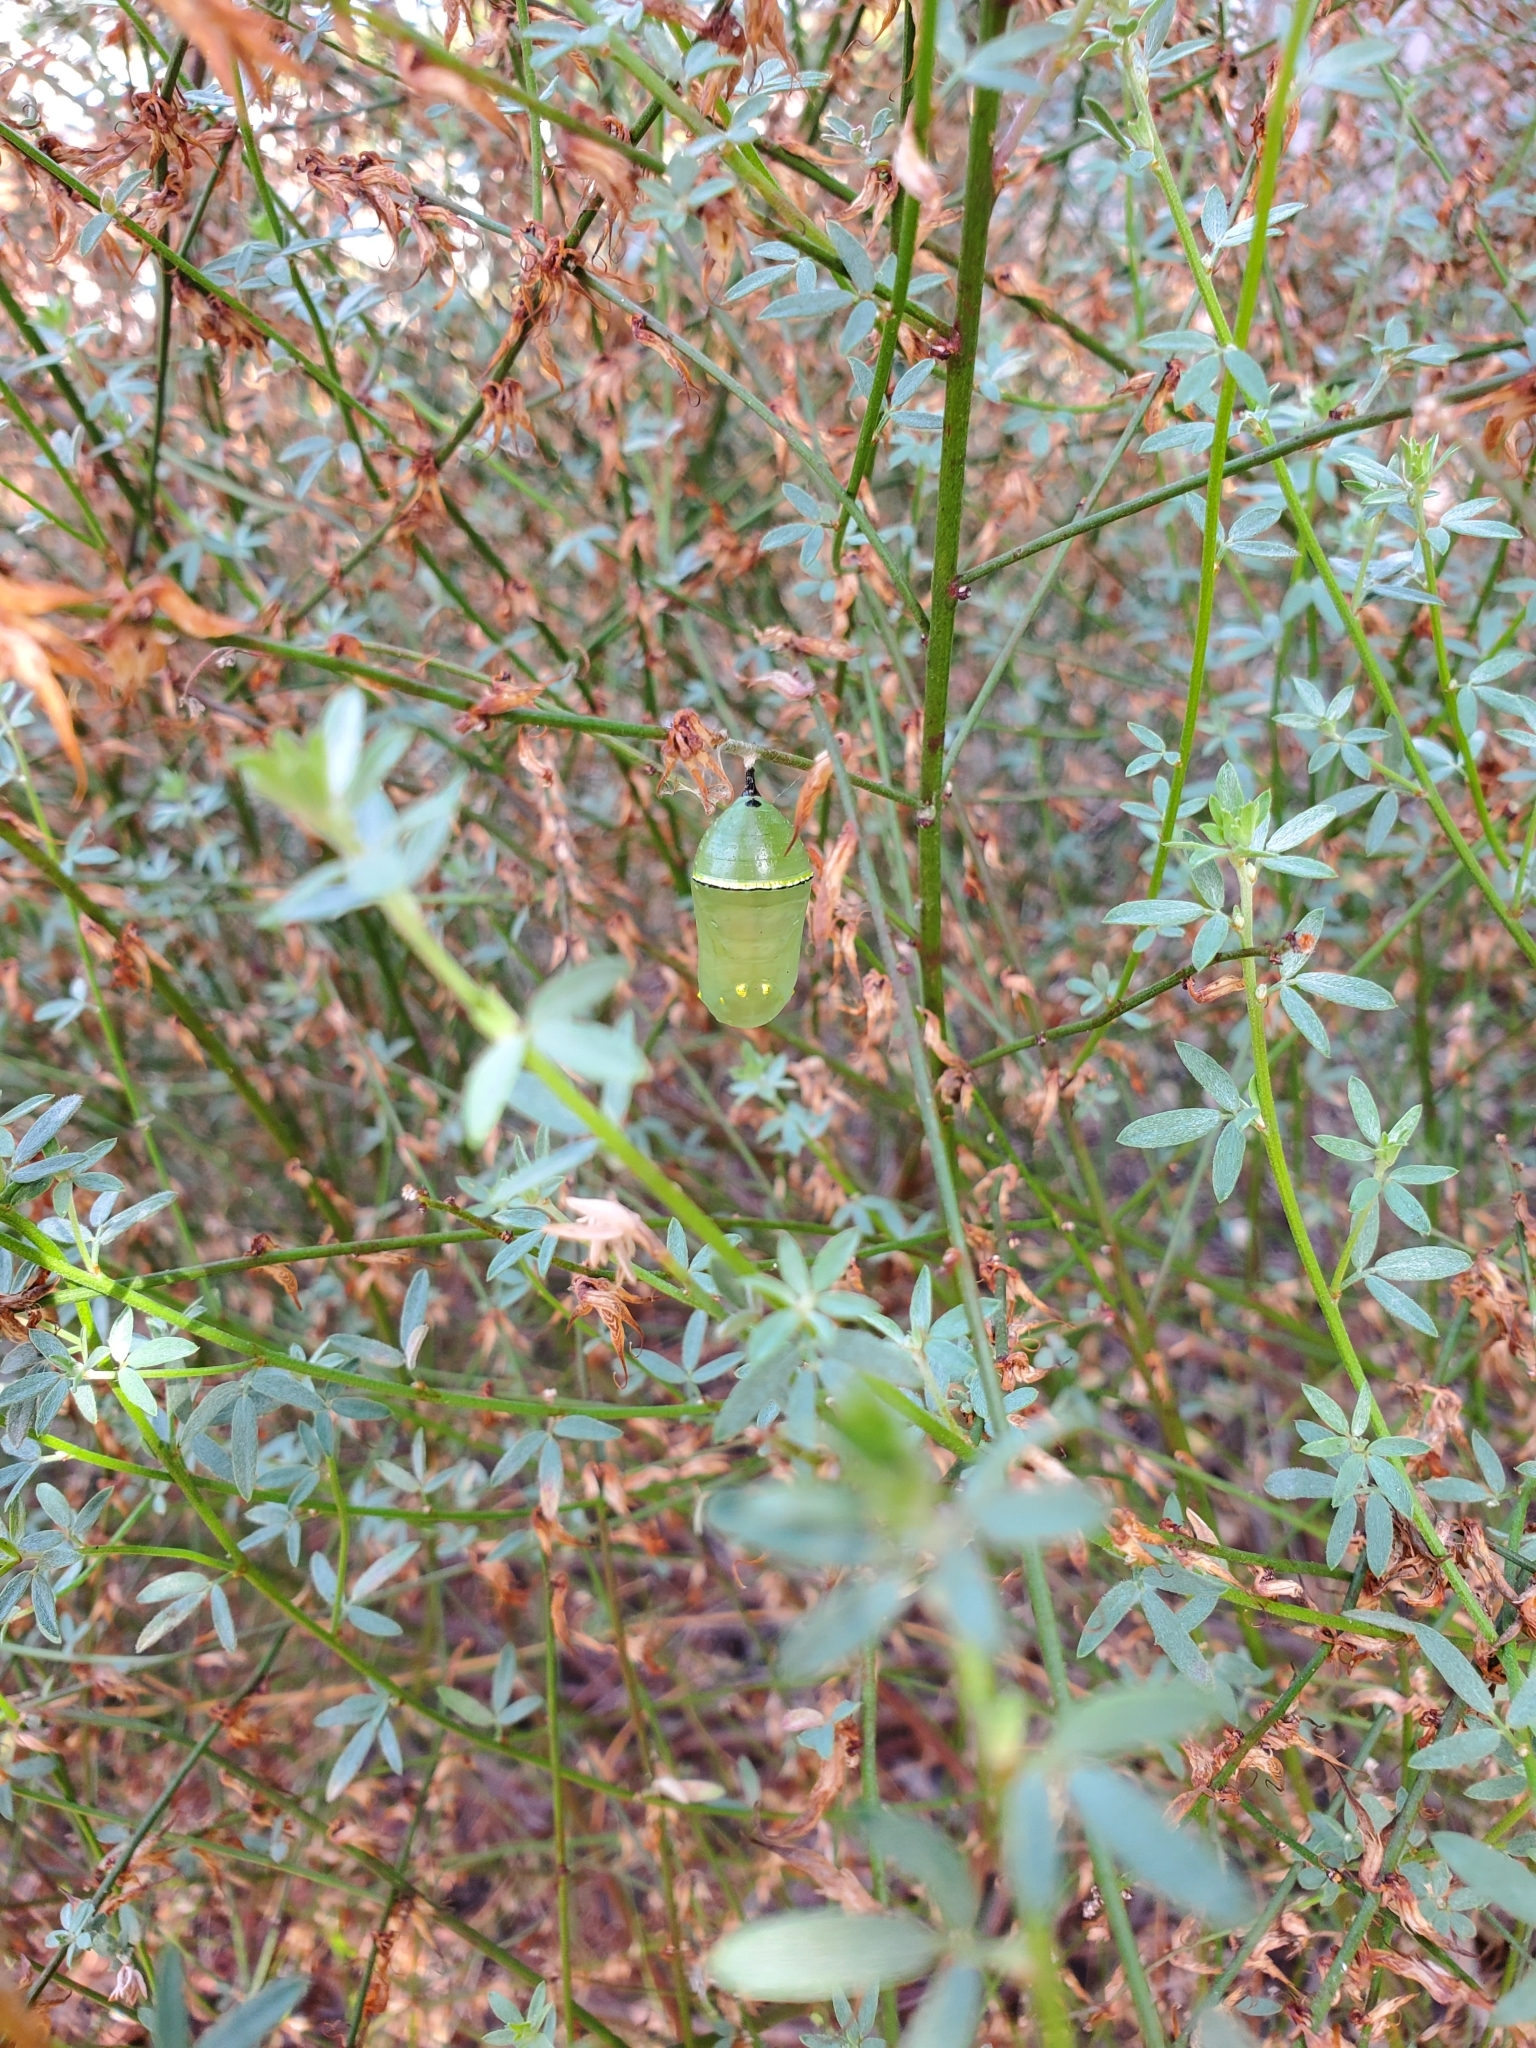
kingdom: Animalia
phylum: Arthropoda
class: Insecta
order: Lepidoptera
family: Nymphalidae
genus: Danaus
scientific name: Danaus plexippus
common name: Monarch
